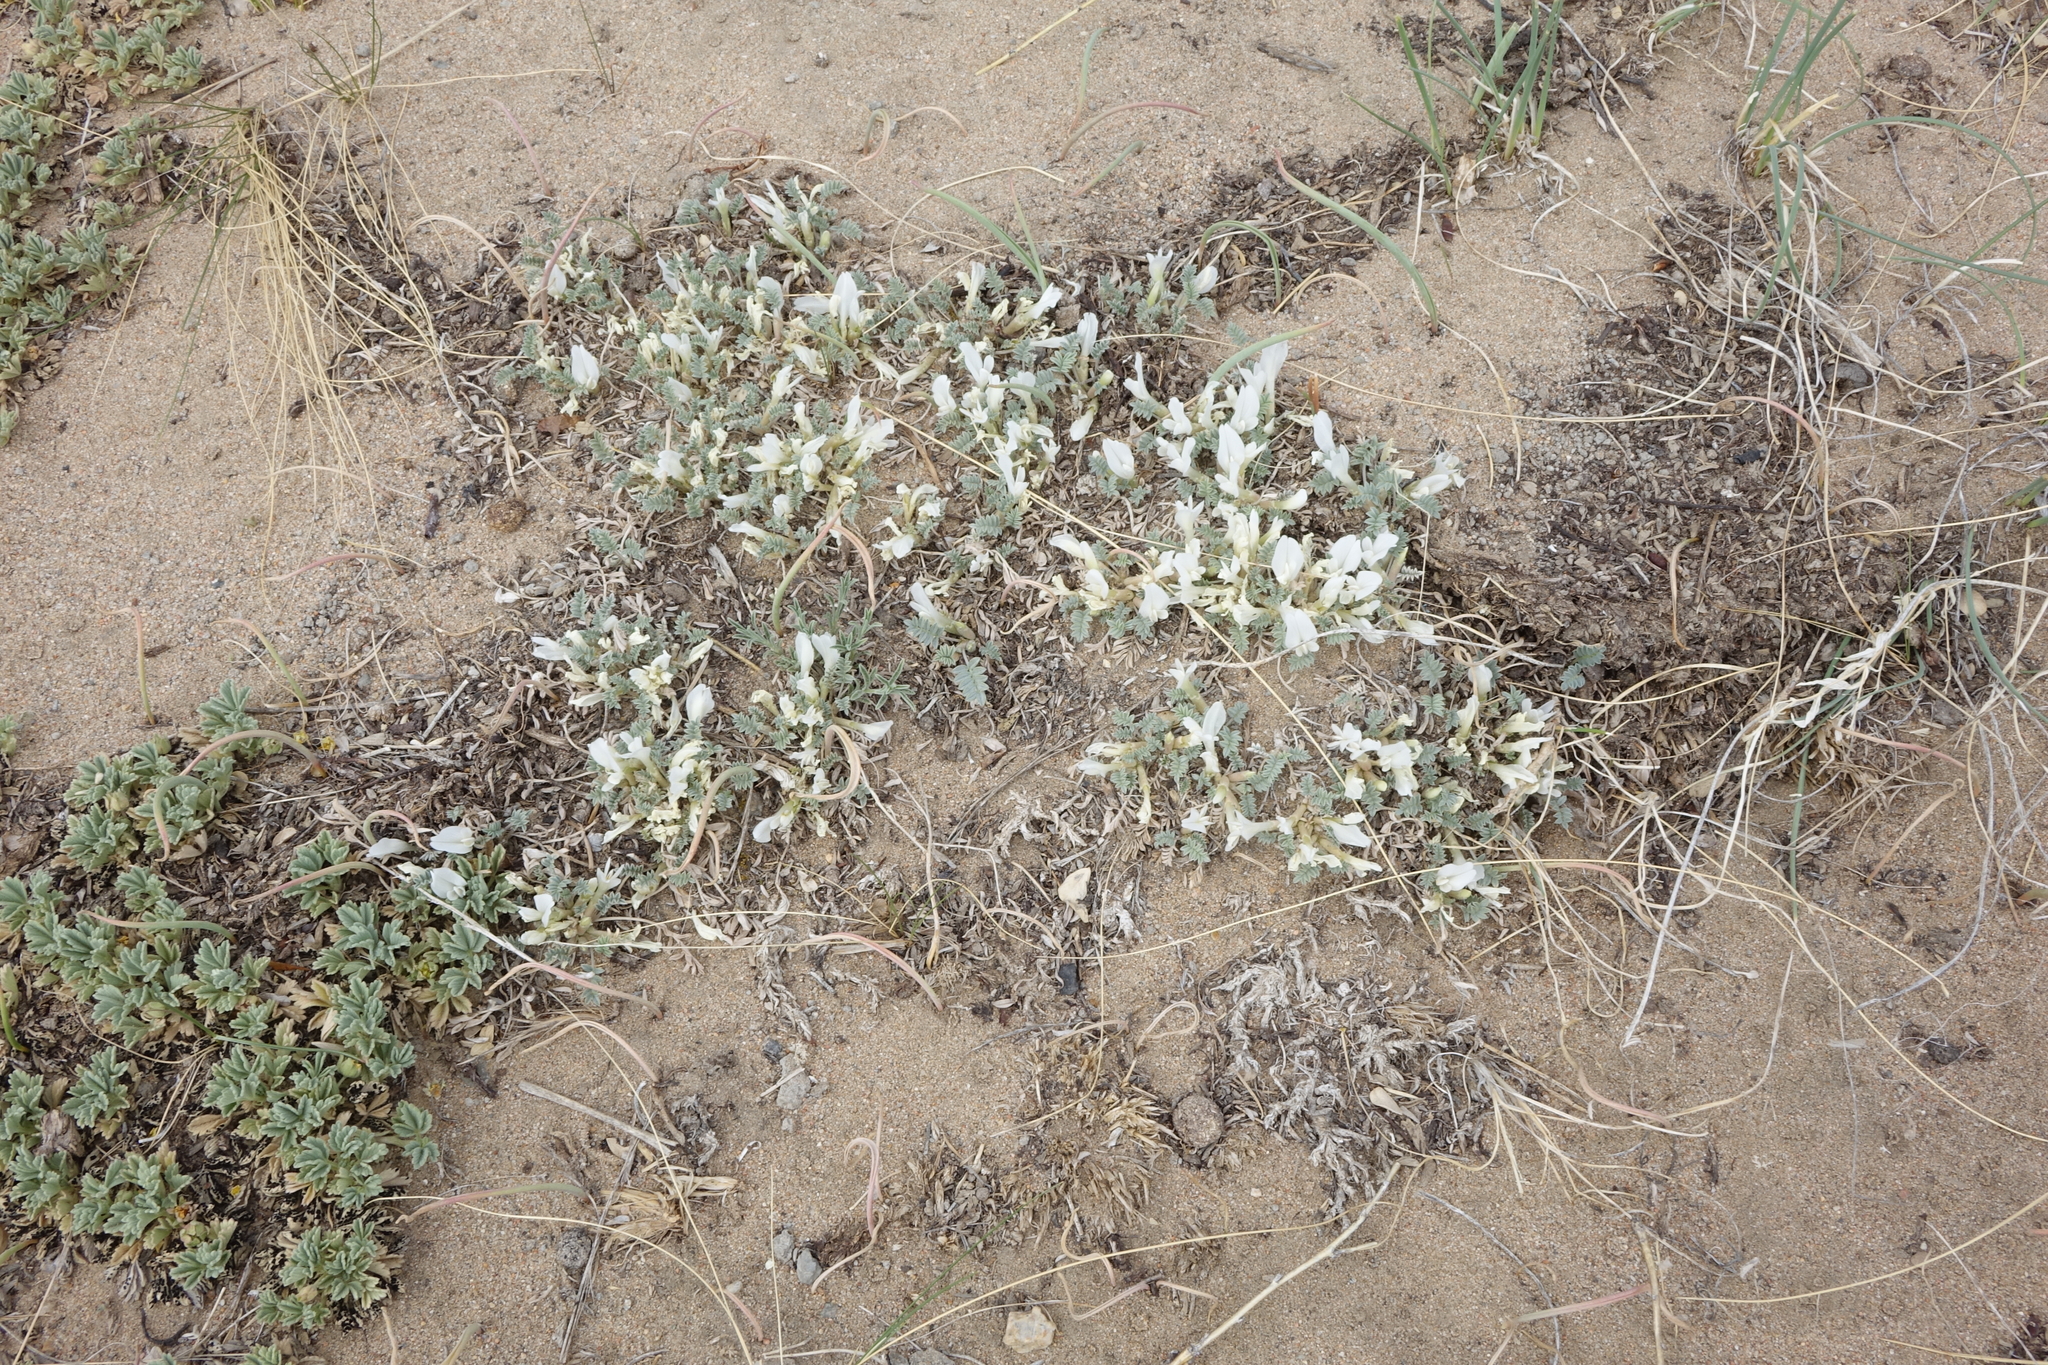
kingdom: Plantae
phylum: Tracheophyta
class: Magnoliopsida
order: Fabales
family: Fabaceae
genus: Astragalus
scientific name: Astragalus teskhemicus
